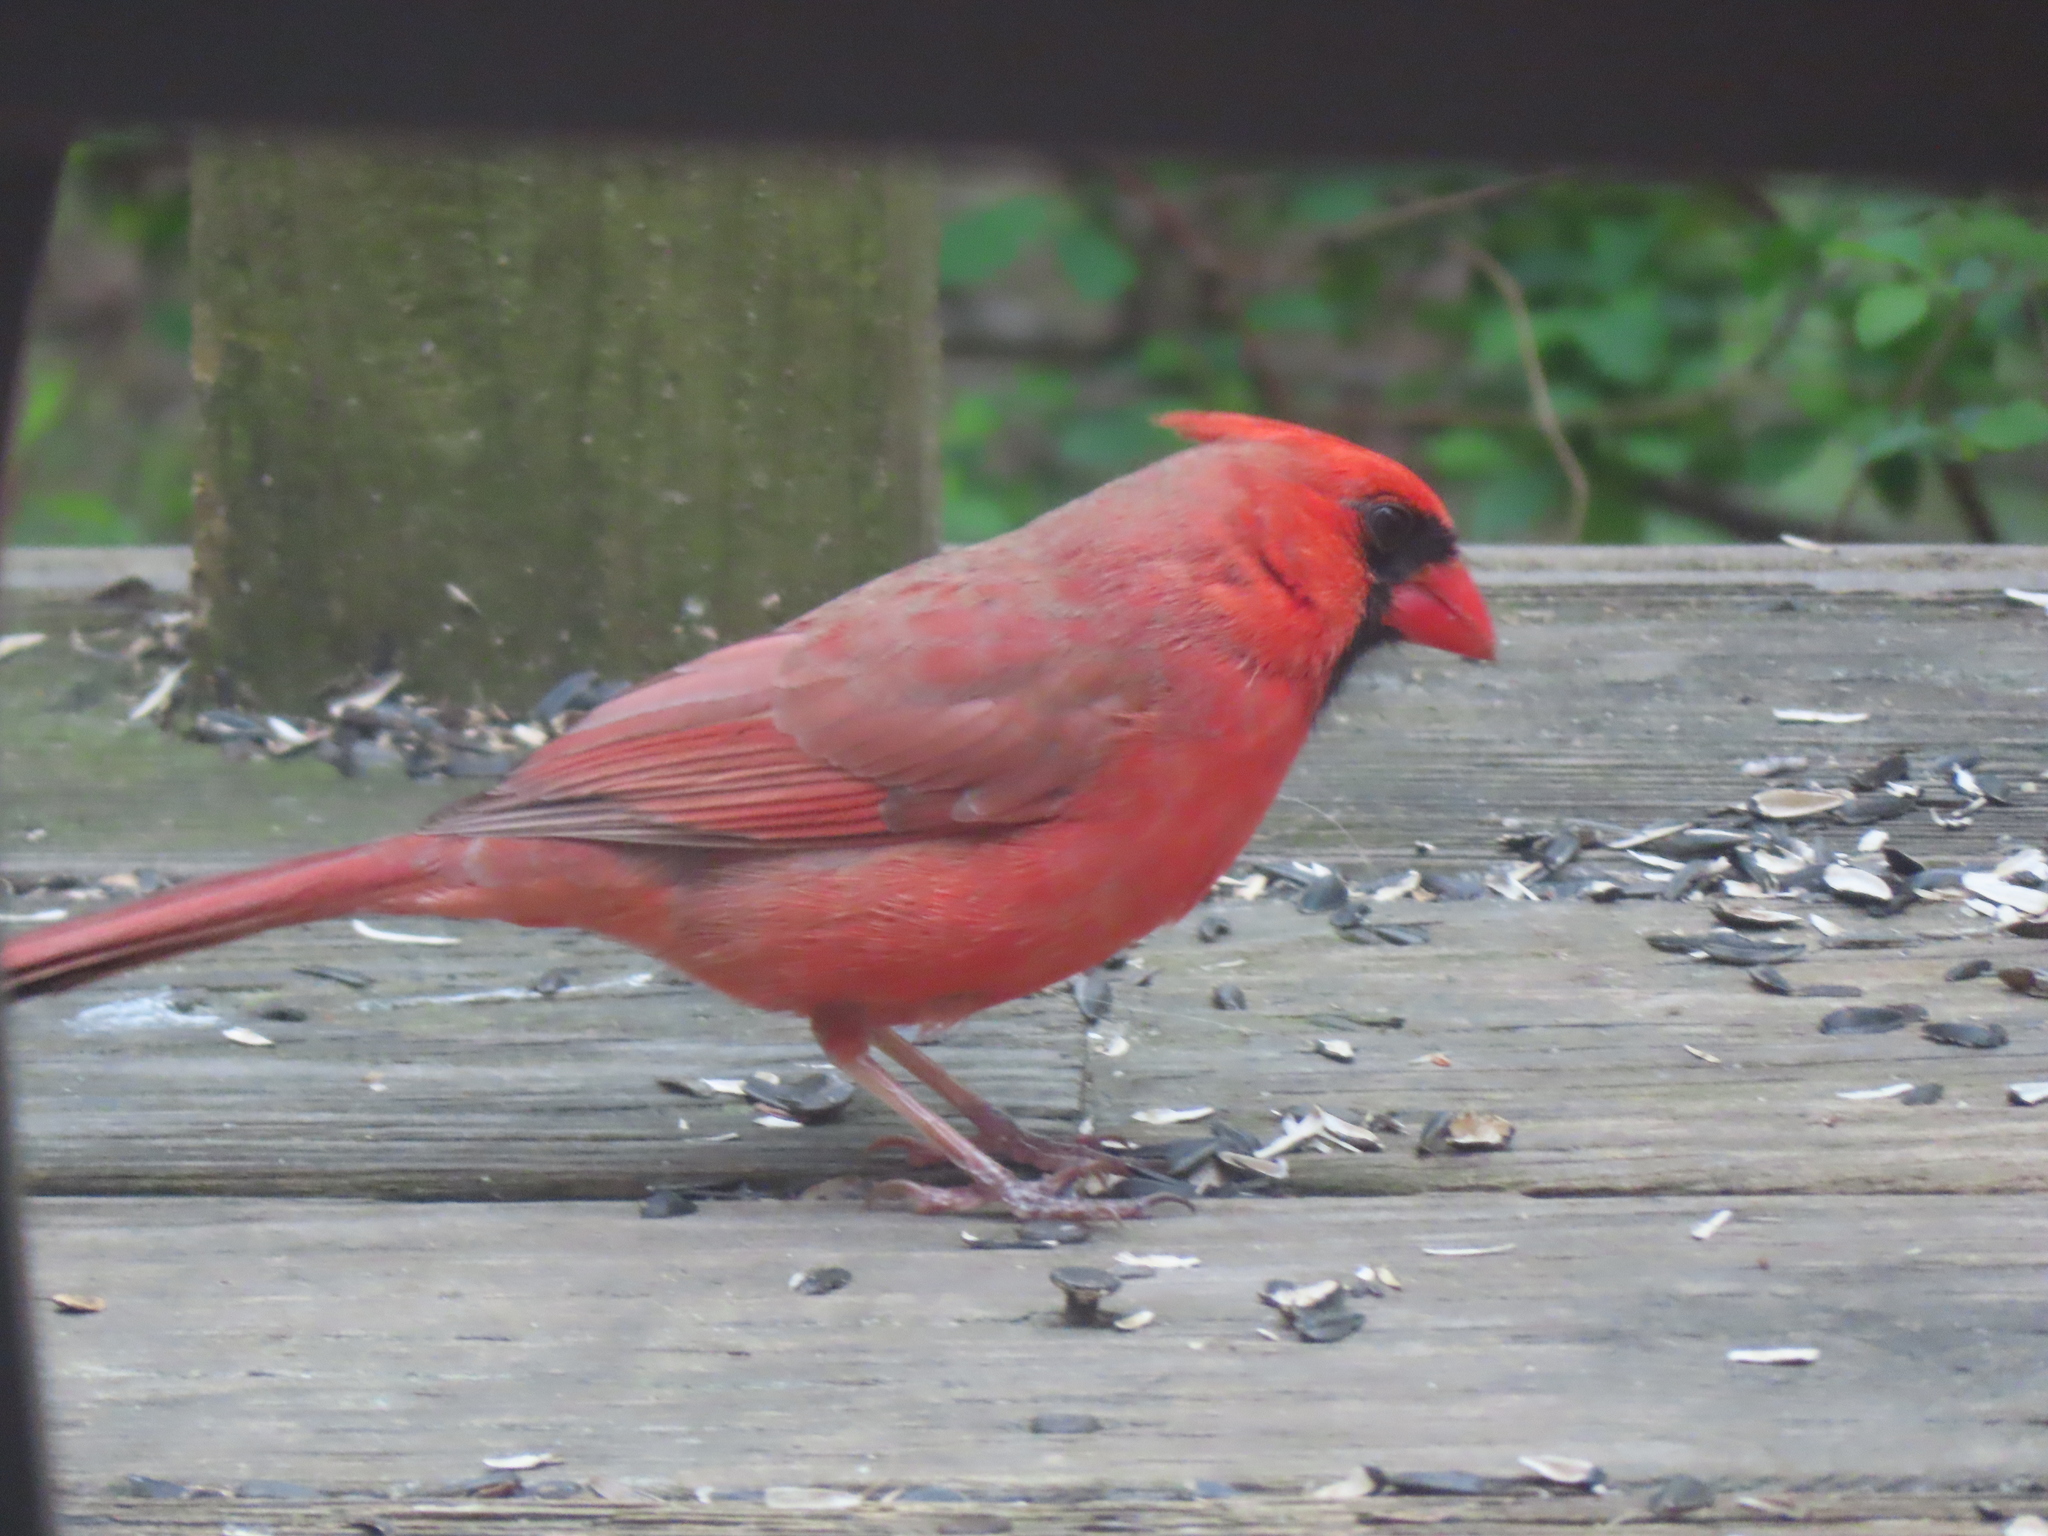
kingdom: Animalia
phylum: Chordata
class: Aves
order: Passeriformes
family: Cardinalidae
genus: Cardinalis
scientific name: Cardinalis cardinalis
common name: Northern cardinal
